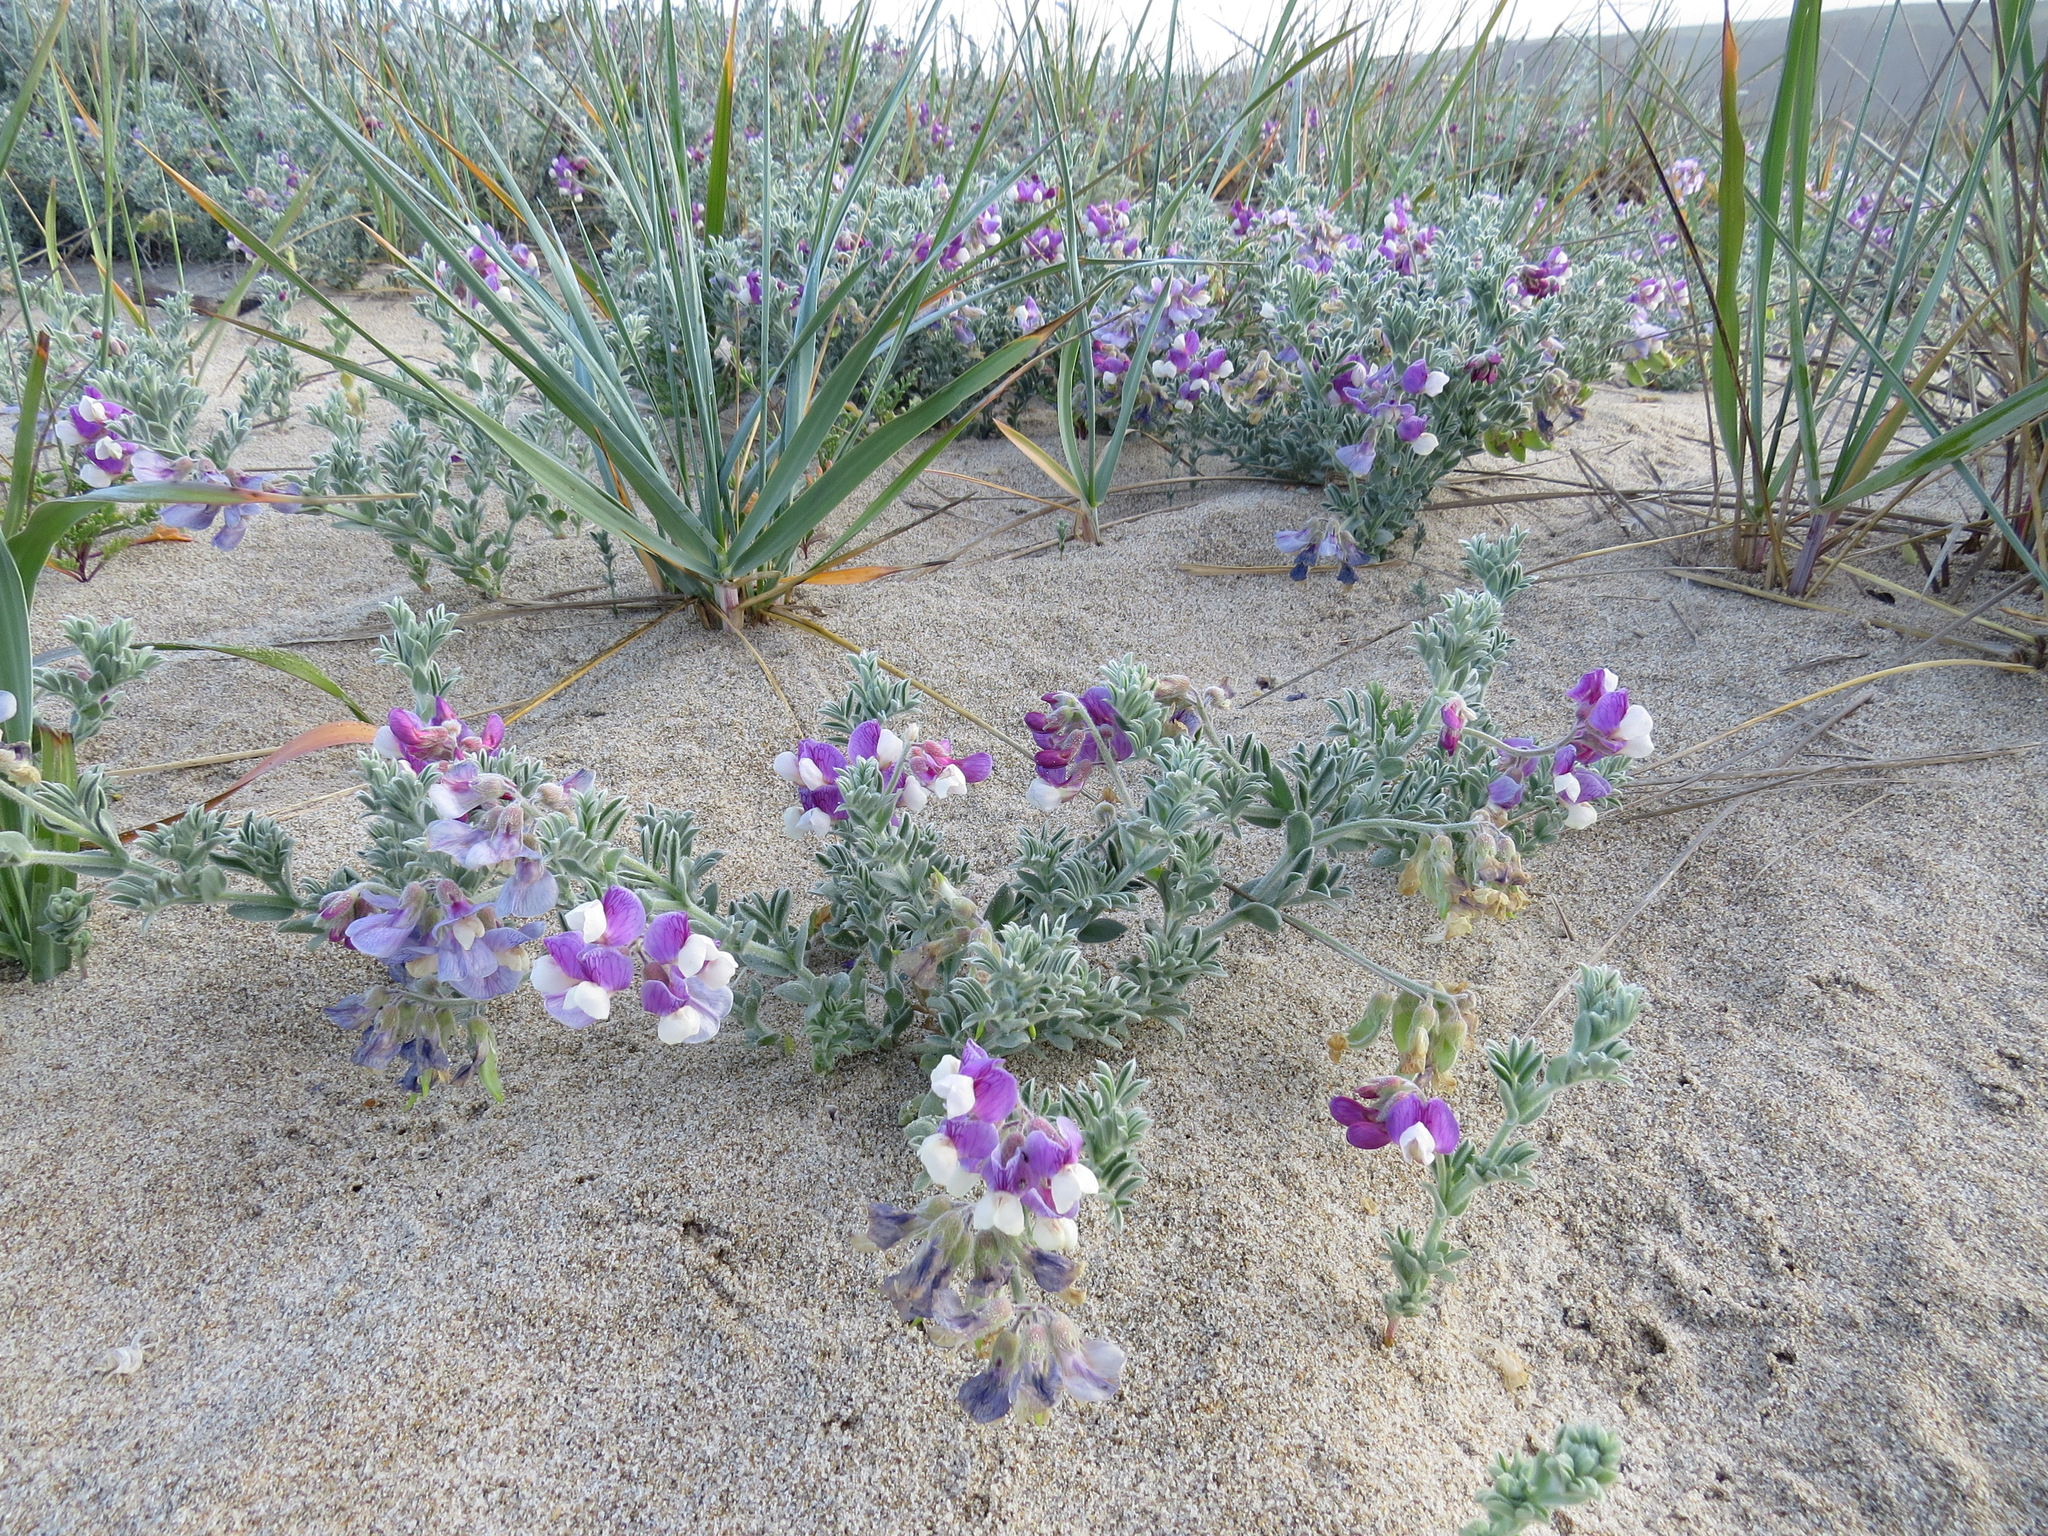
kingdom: Plantae
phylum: Tracheophyta
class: Magnoliopsida
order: Fabales
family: Fabaceae
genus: Lathyrus
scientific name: Lathyrus littoralis
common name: Dune sweet pea
